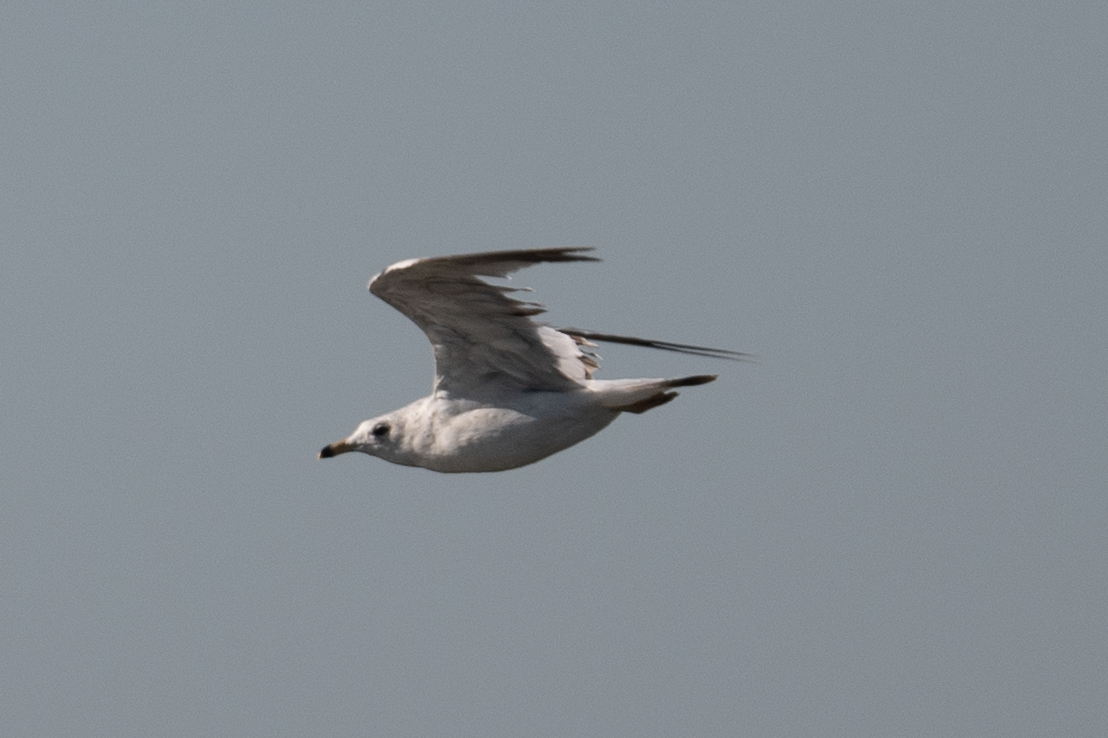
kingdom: Animalia
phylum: Chordata
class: Aves
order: Charadriiformes
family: Laridae
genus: Larus
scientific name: Larus delawarensis
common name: Ring-billed gull
